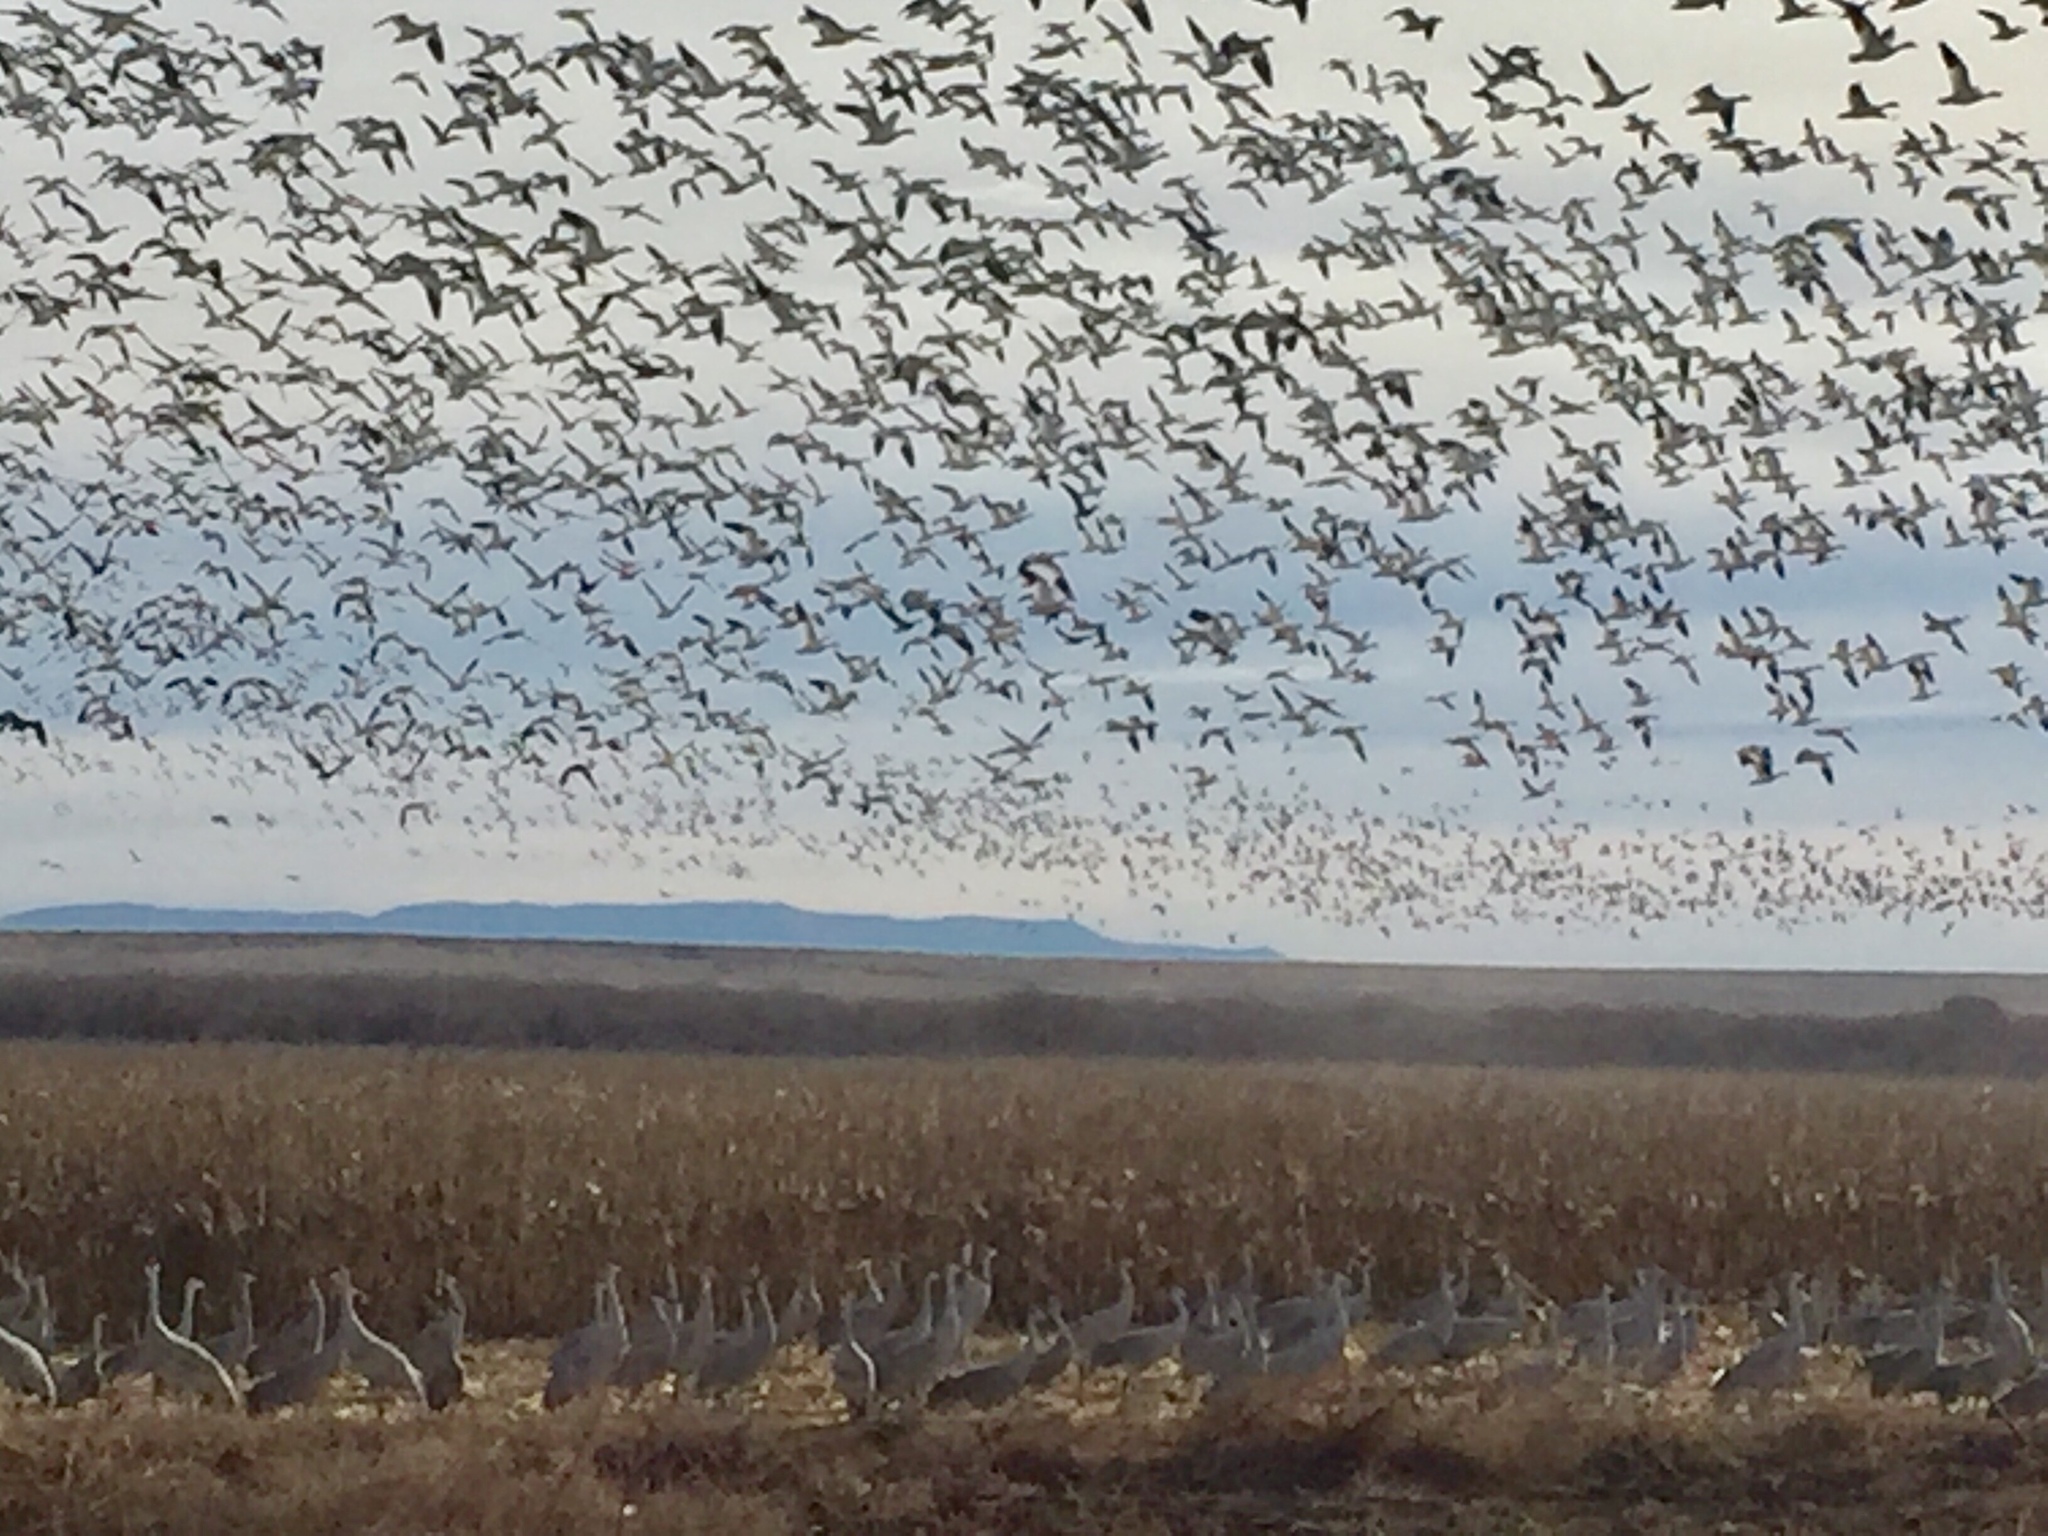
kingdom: Animalia
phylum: Chordata
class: Aves
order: Anseriformes
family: Anatidae
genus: Anser
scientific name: Anser caerulescens
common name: Snow goose
